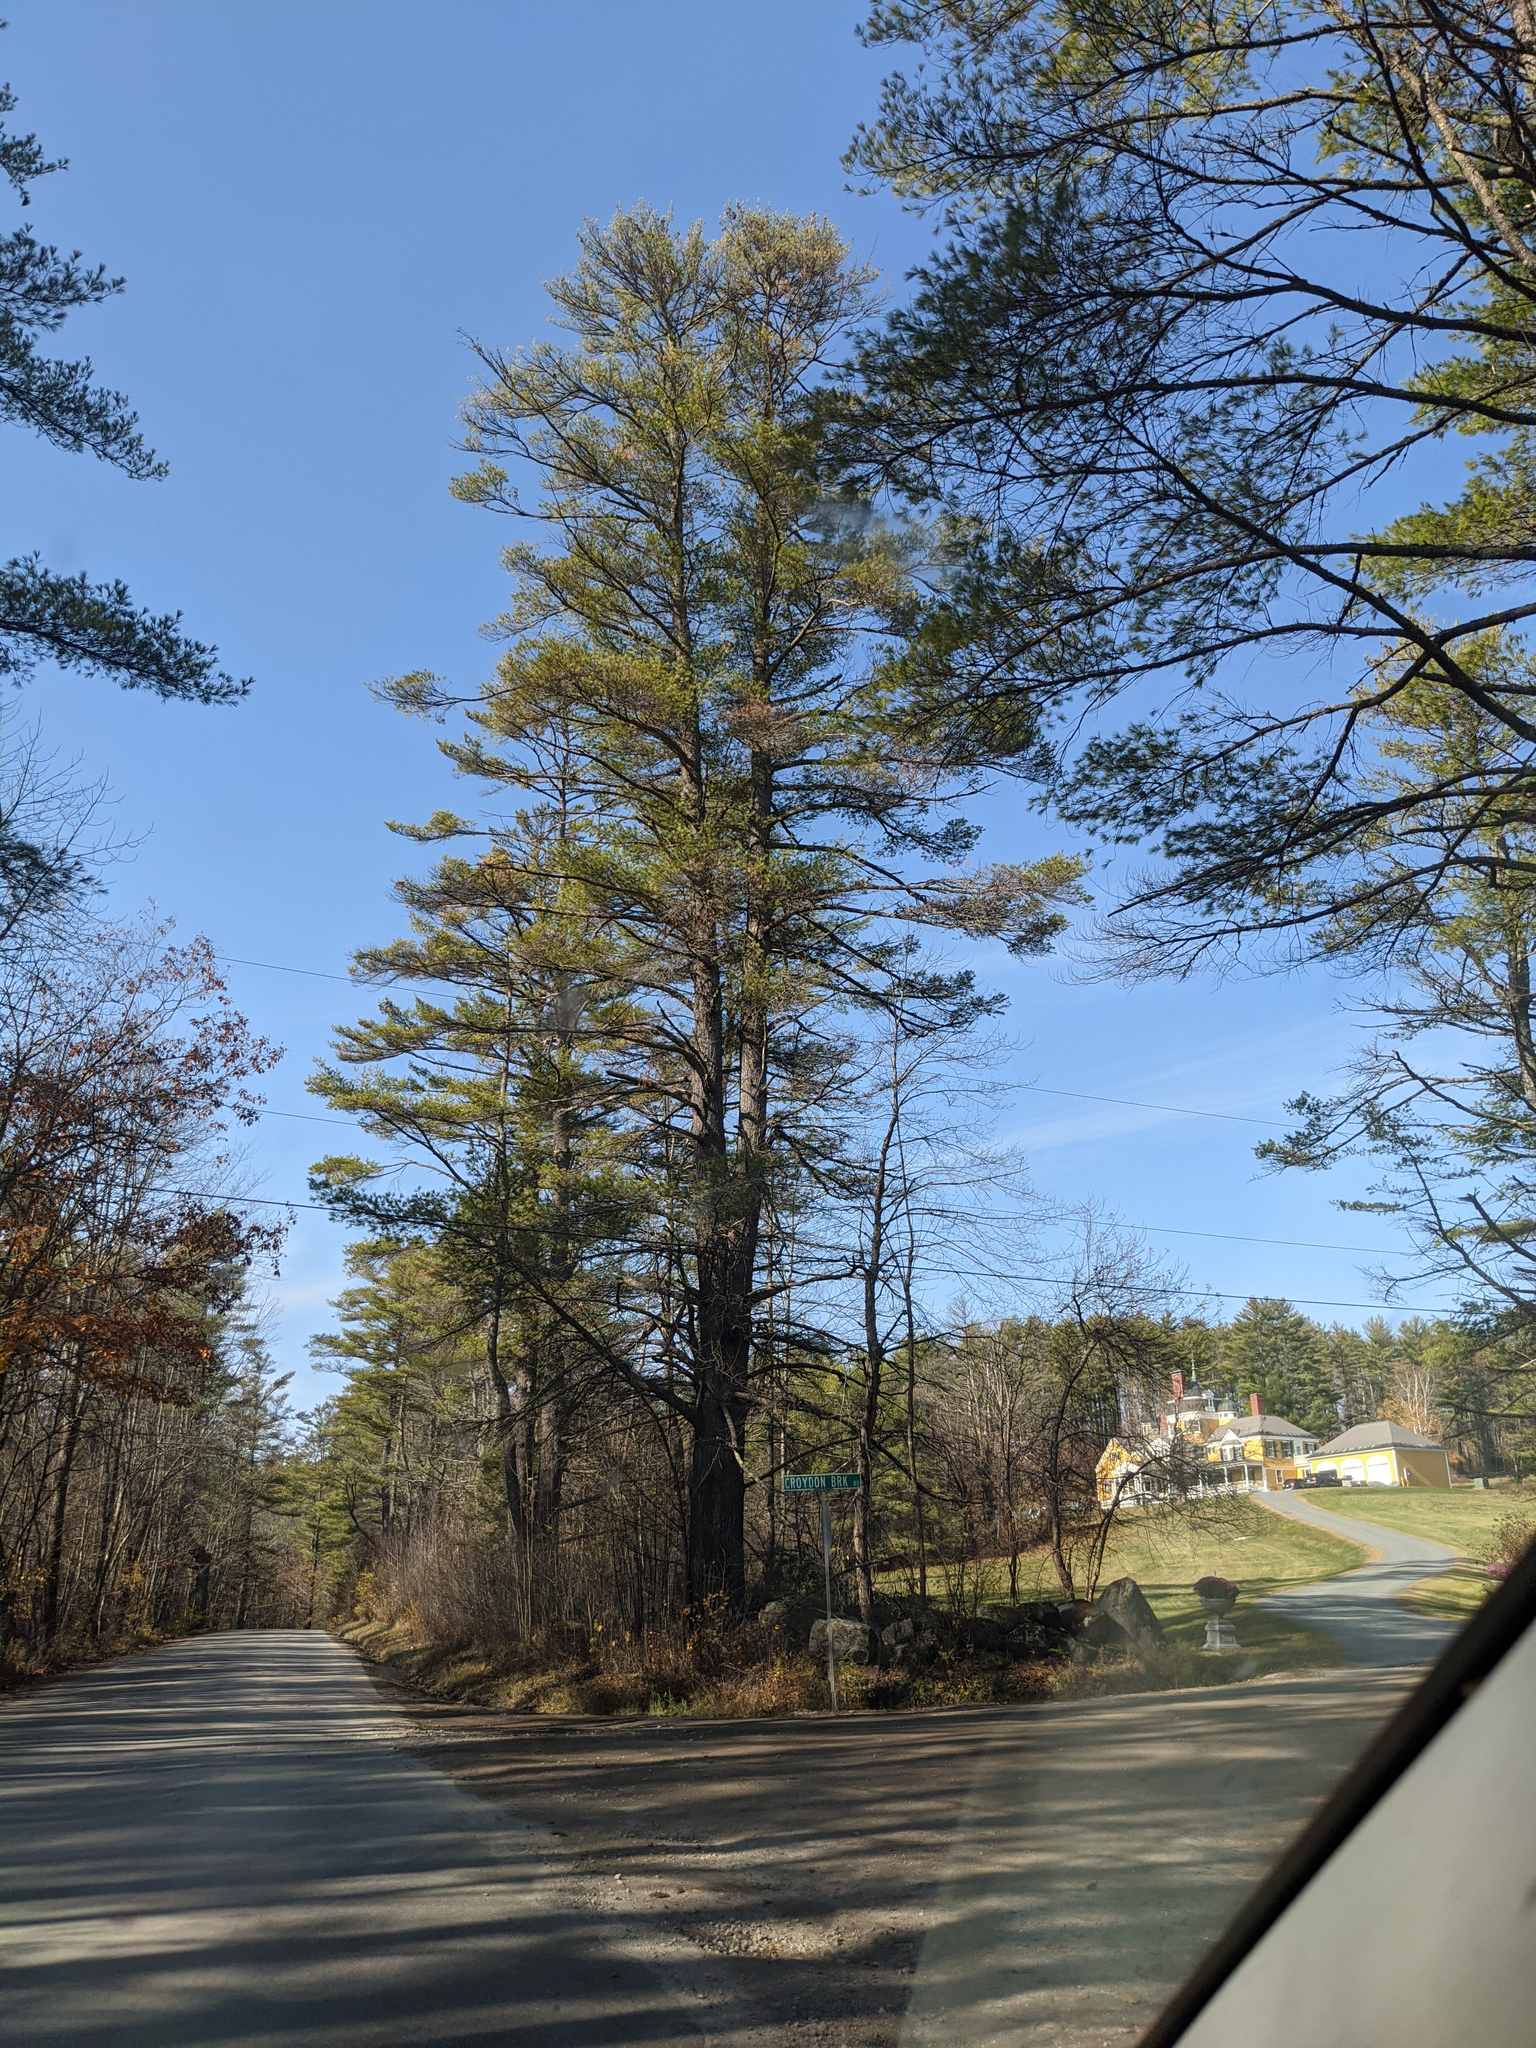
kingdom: Plantae
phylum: Tracheophyta
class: Pinopsida
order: Pinales
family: Pinaceae
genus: Pinus
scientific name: Pinus strobus
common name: Weymouth pine
